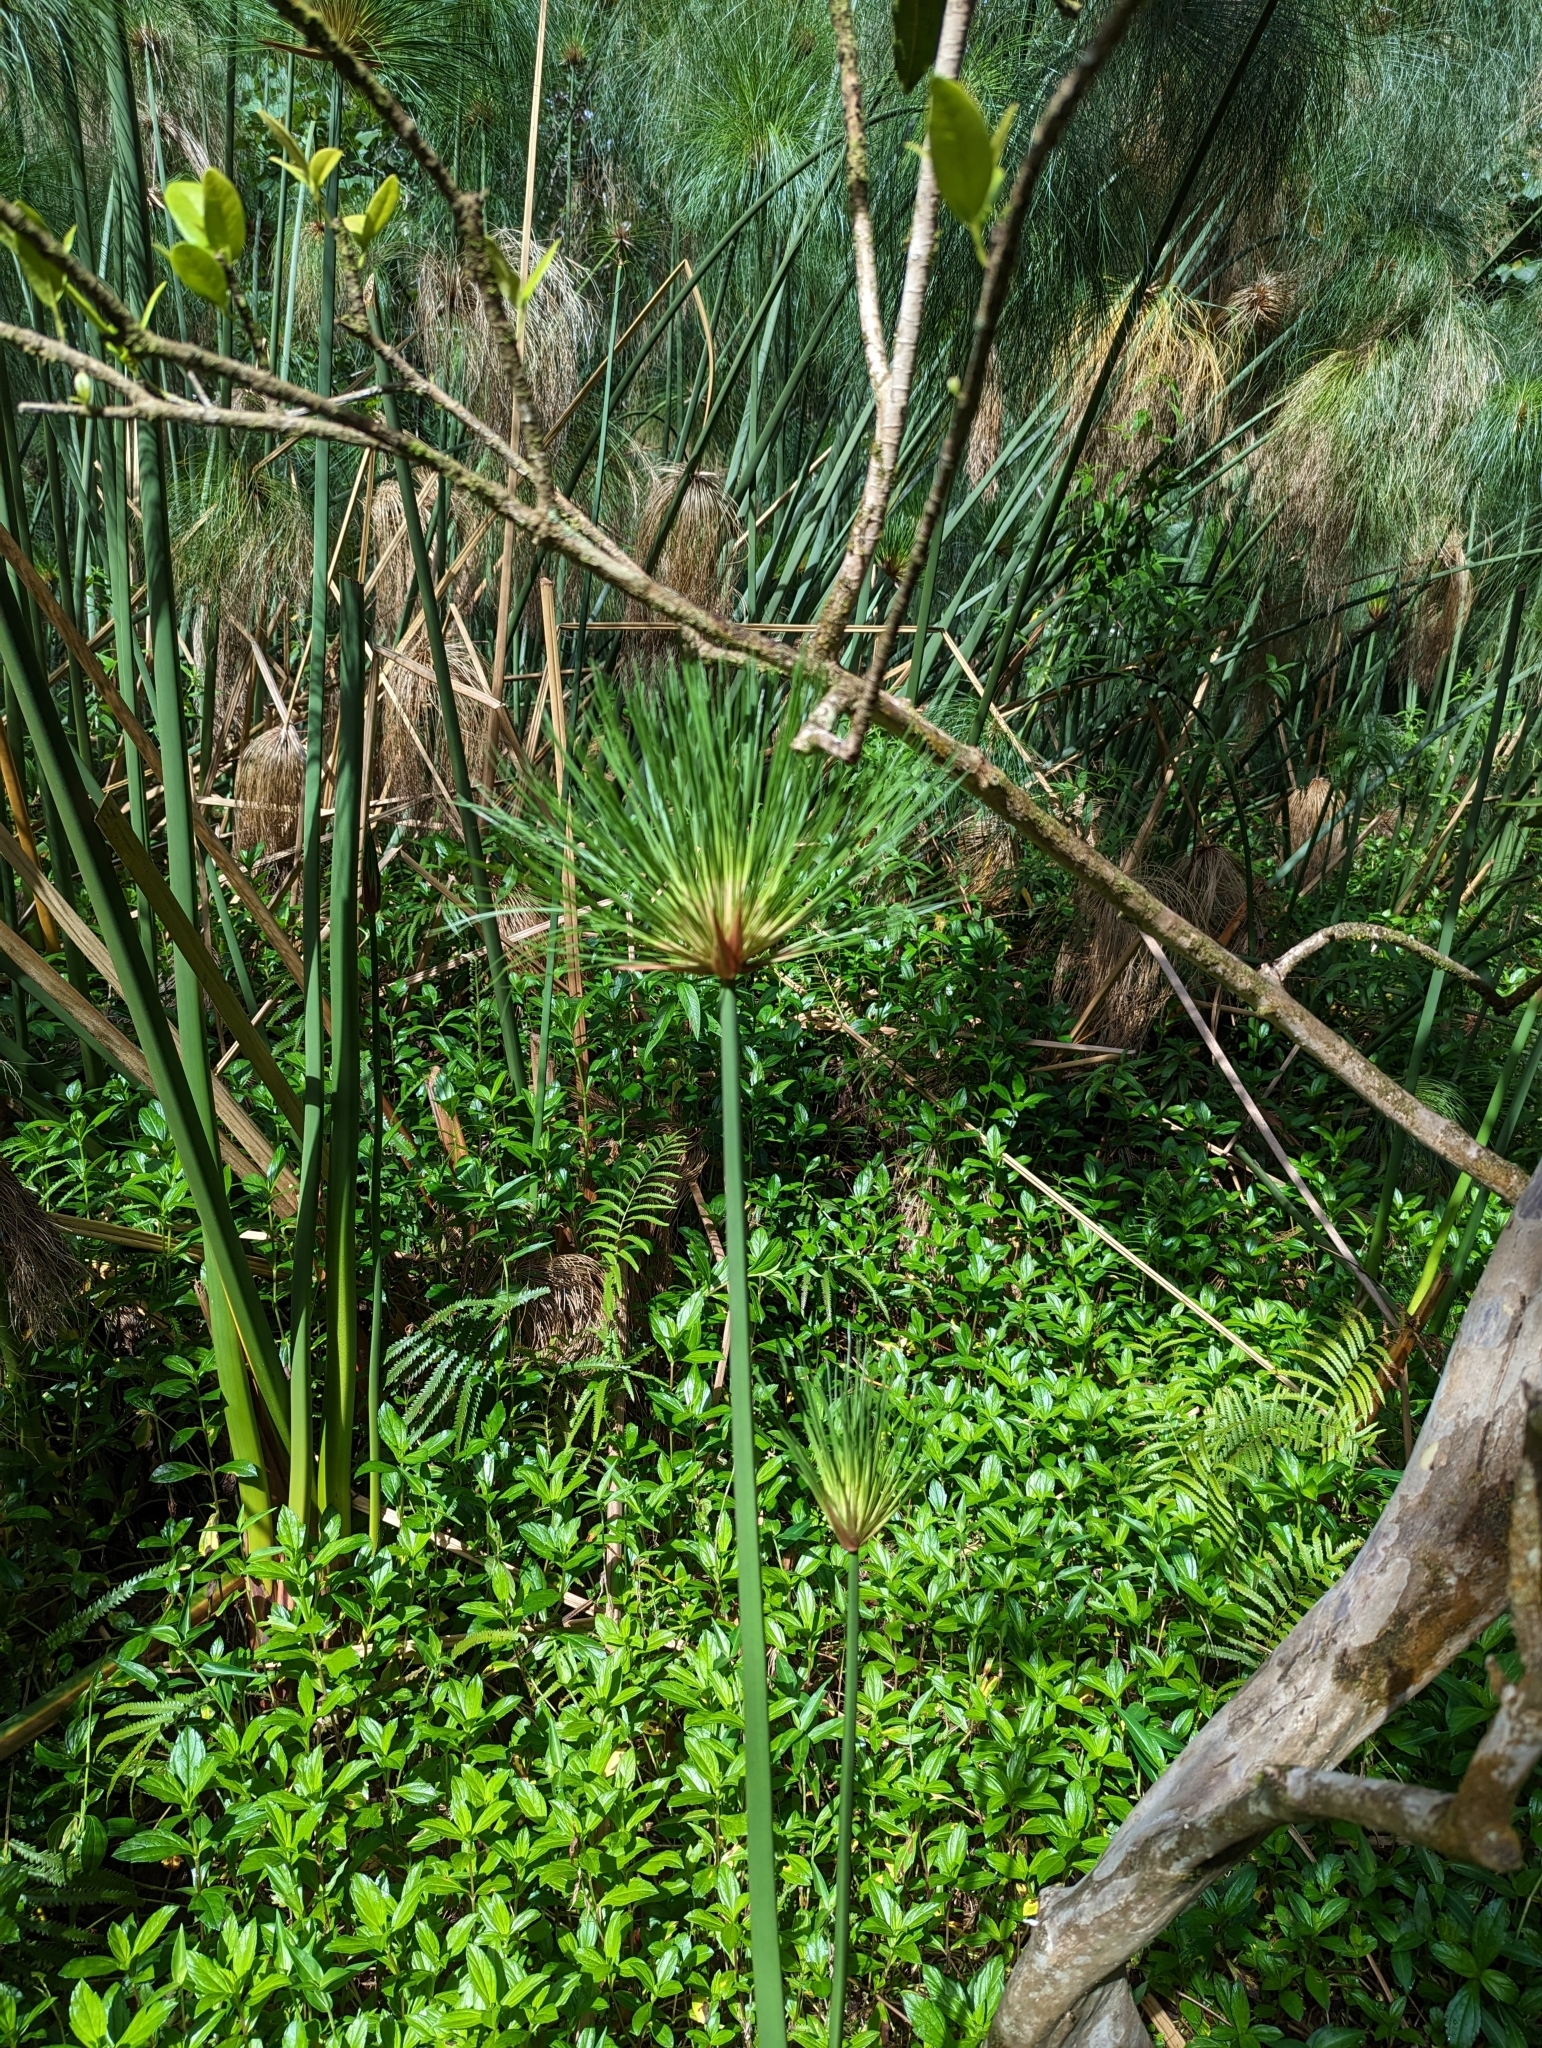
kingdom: Plantae
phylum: Tracheophyta
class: Liliopsida
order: Poales
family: Cyperaceae
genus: Cyperus
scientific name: Cyperus papyrus
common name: Papyrus
